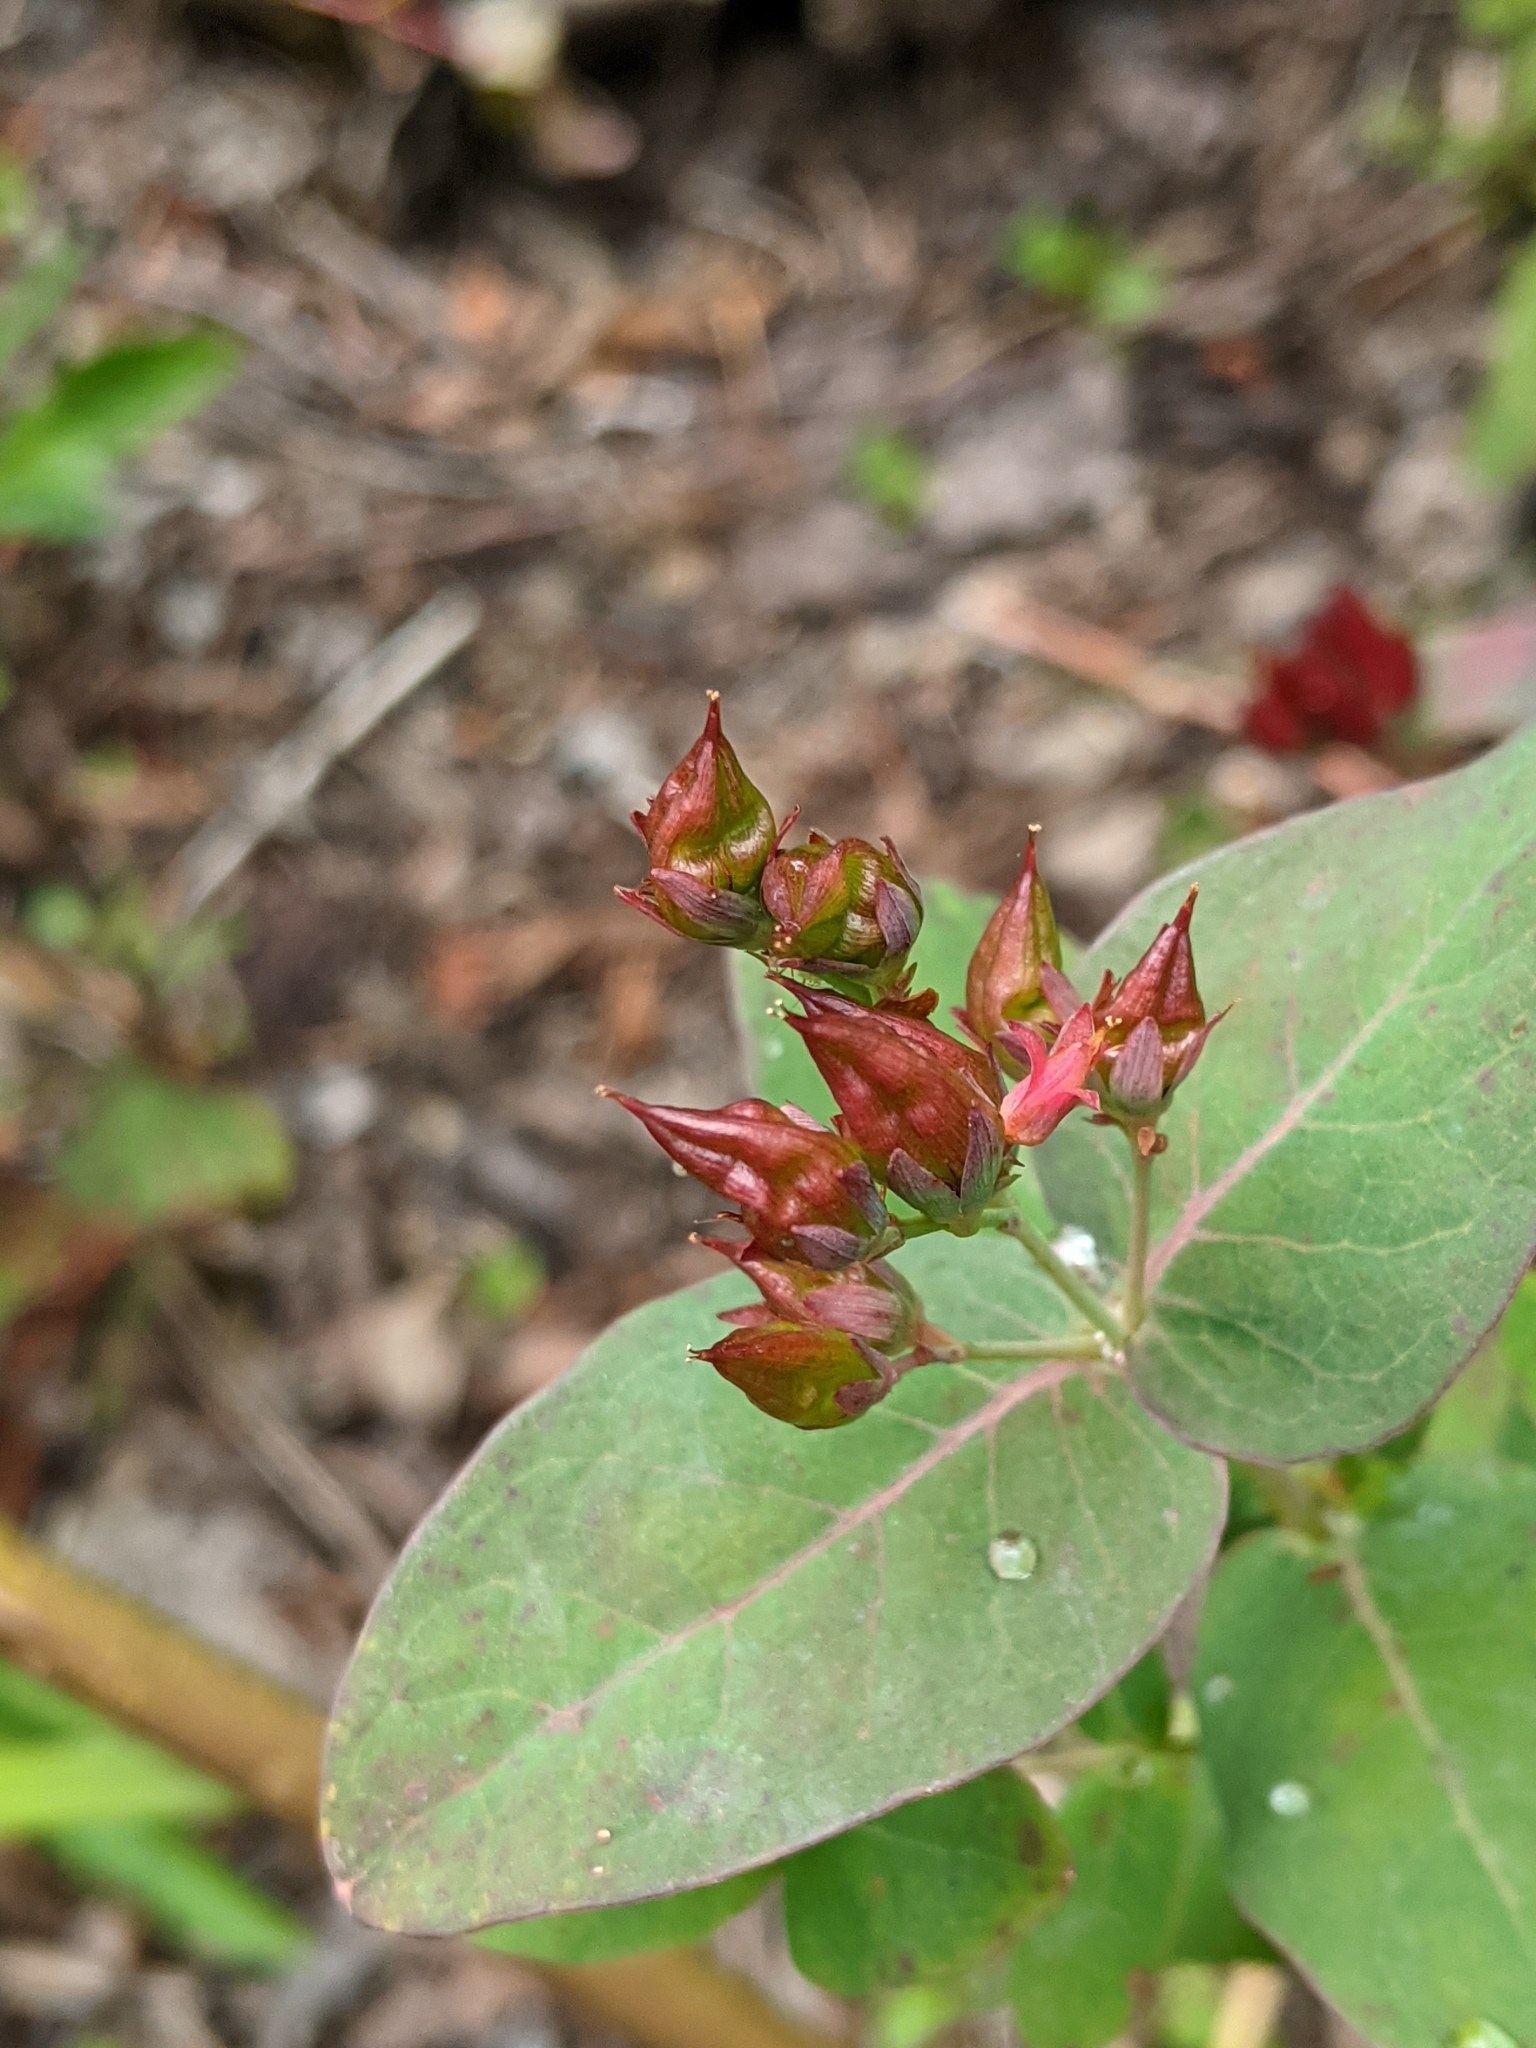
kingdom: Plantae
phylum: Tracheophyta
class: Magnoliopsida
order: Malpighiales
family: Hypericaceae
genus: Triadenum
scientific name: Triadenum fraseri
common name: Fraser's marsh st. johnswort
